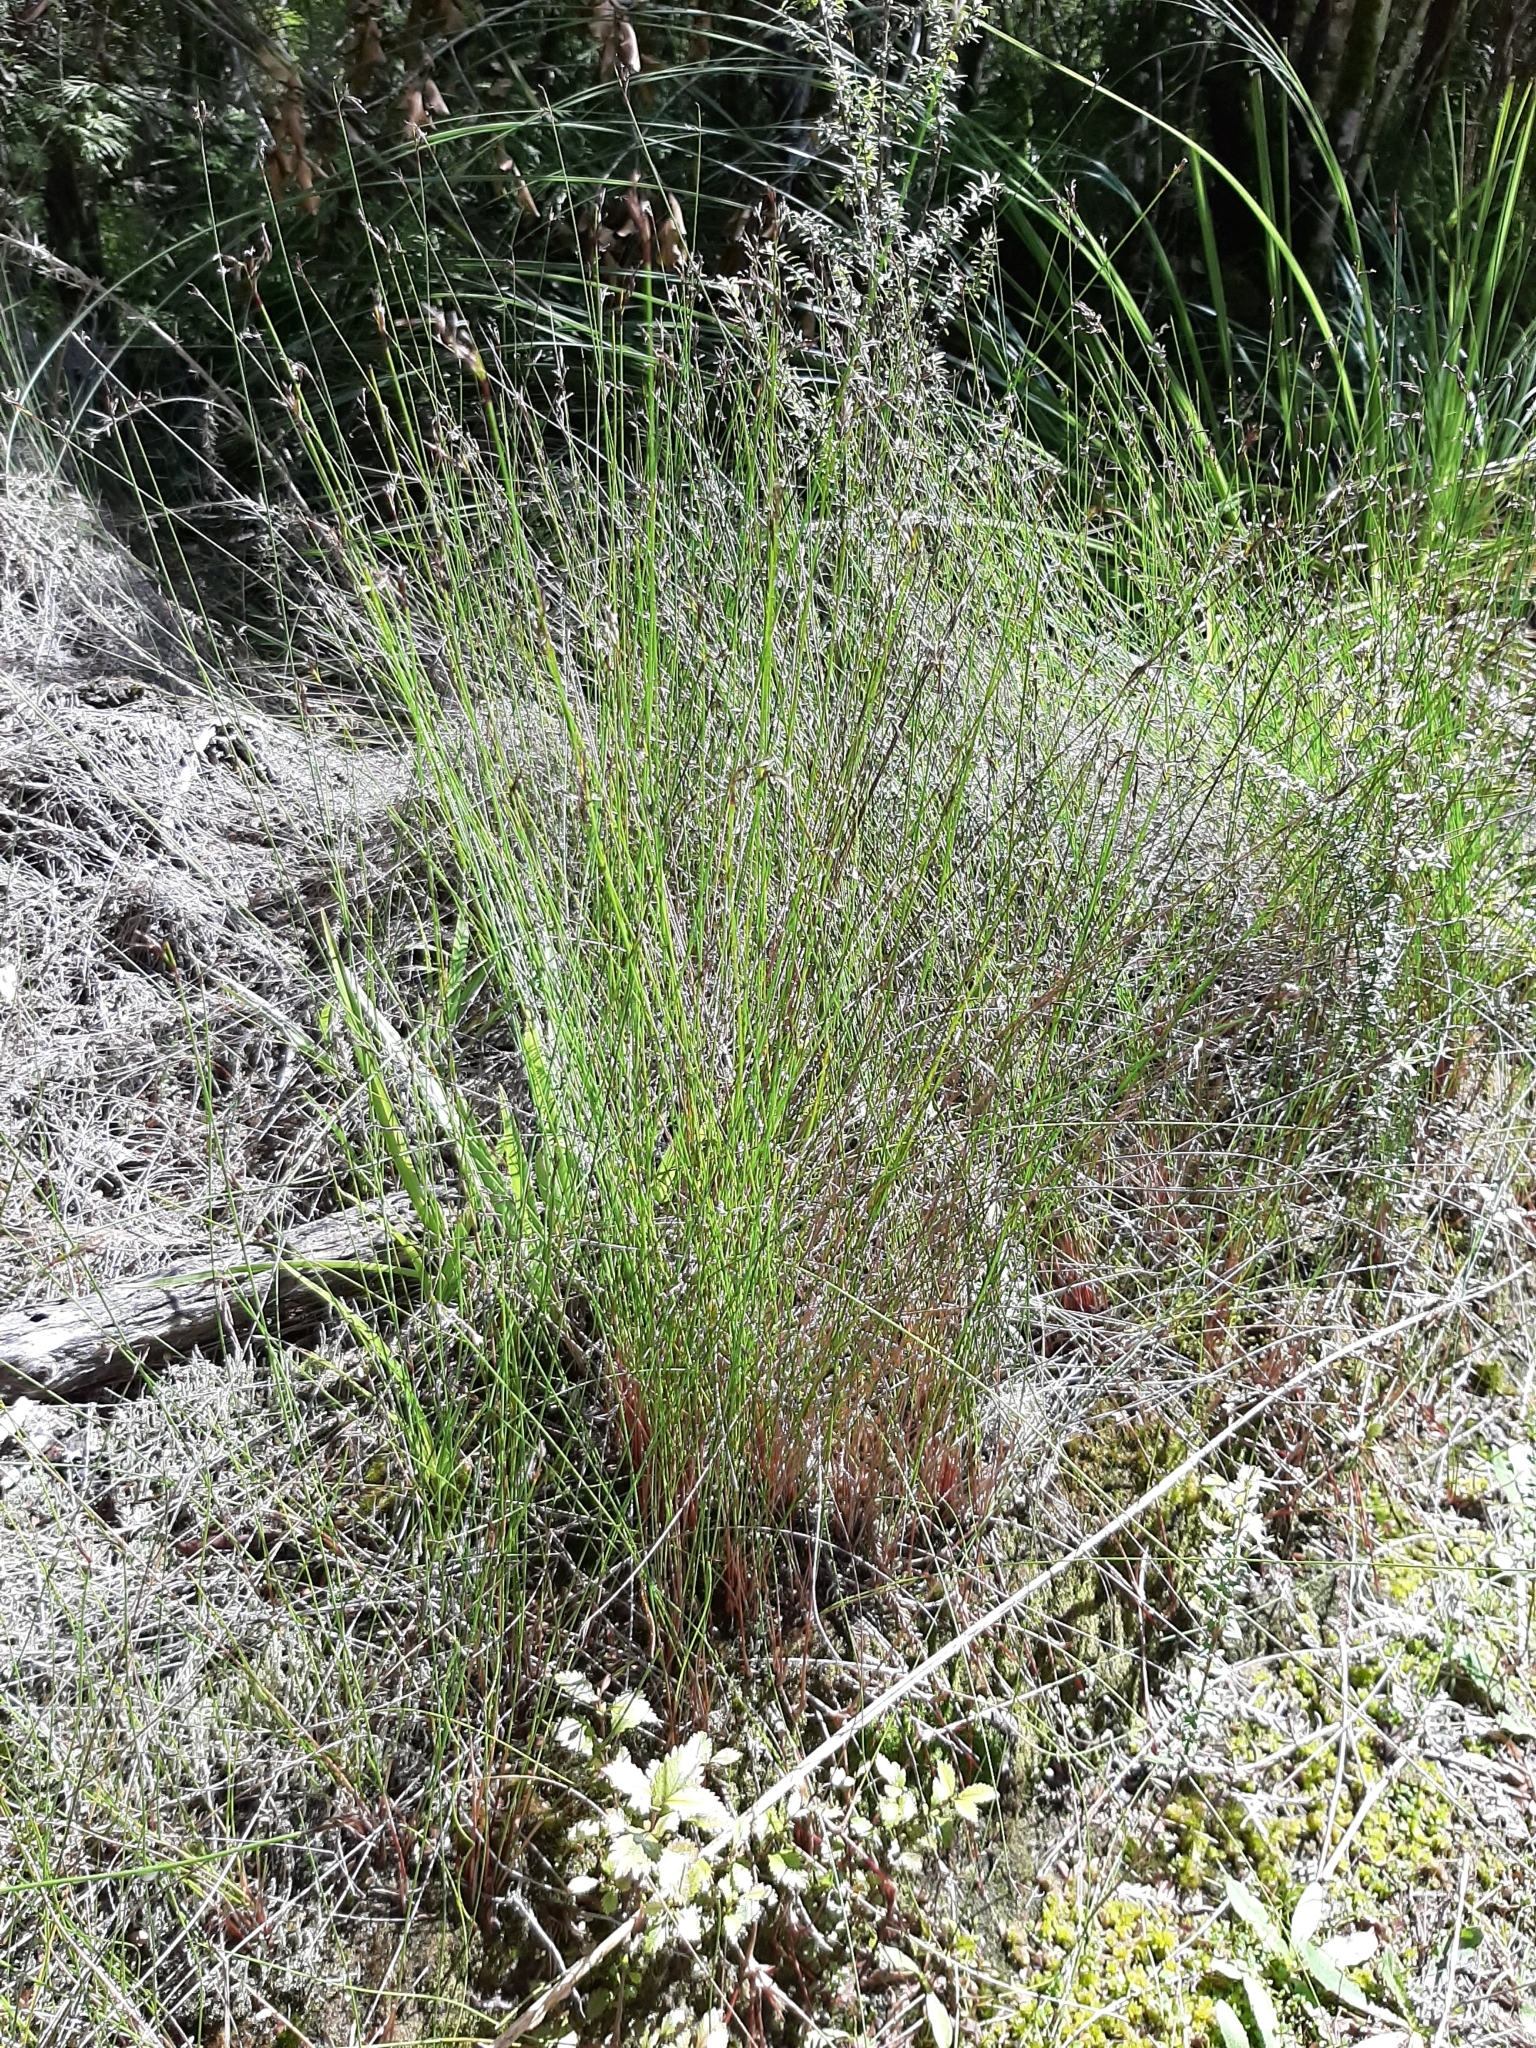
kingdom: Plantae
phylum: Tracheophyta
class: Liliopsida
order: Poales
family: Cyperaceae
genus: Machaerina
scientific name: Machaerina tenax
